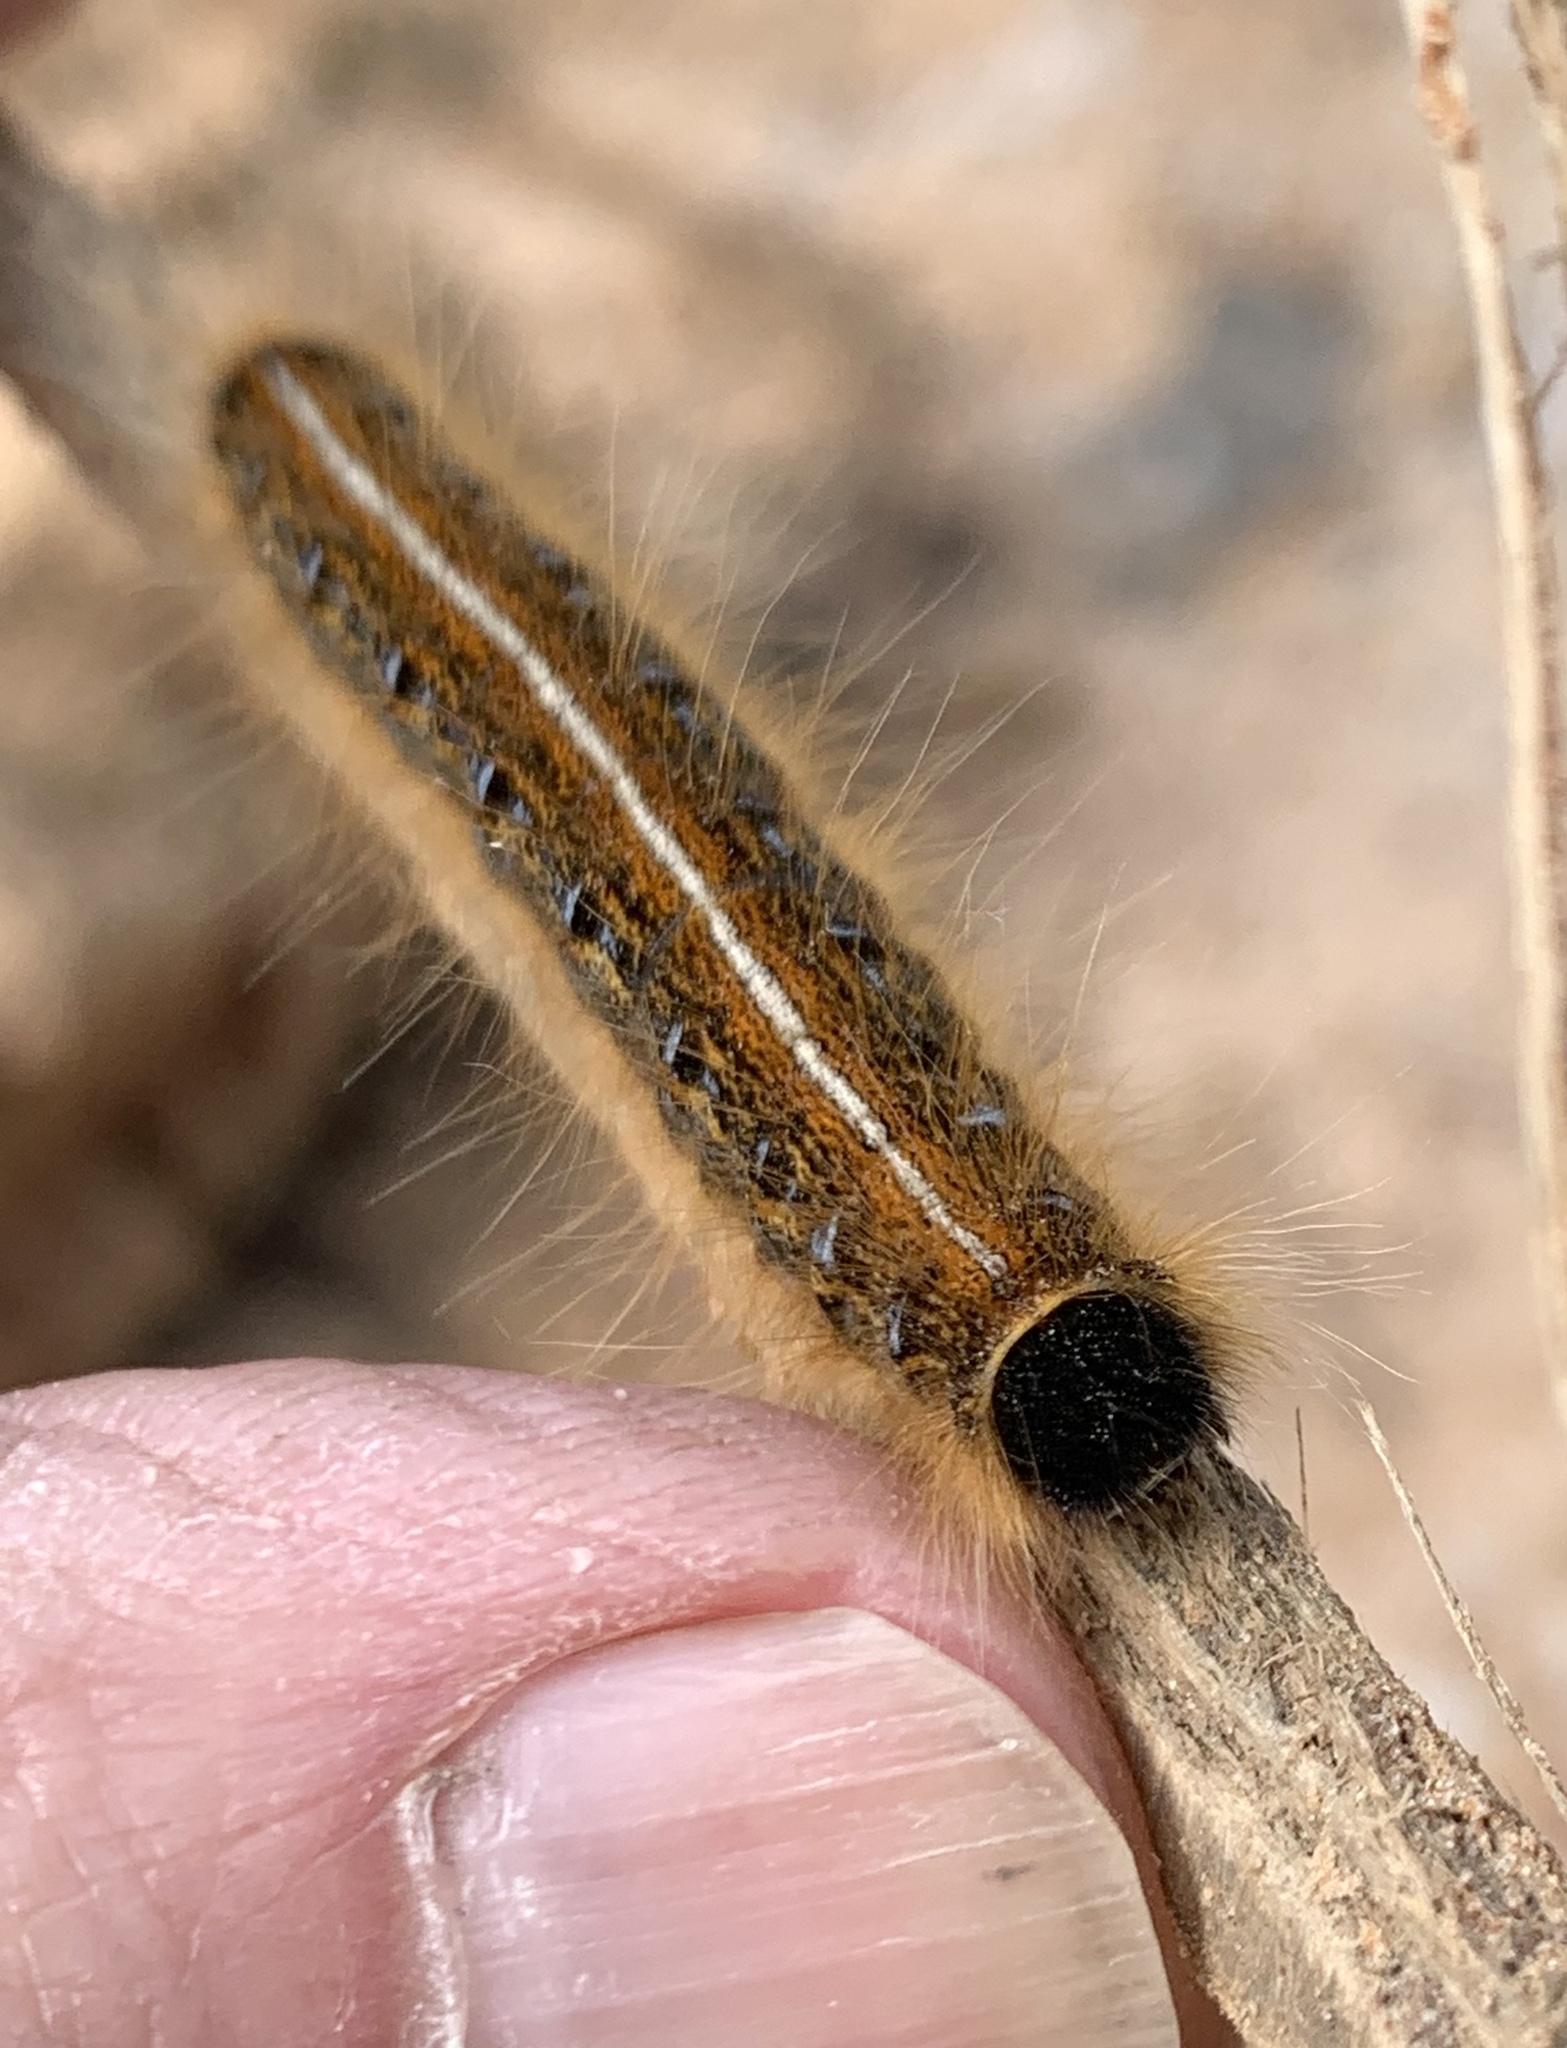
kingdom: Animalia
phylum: Arthropoda
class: Insecta
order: Lepidoptera
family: Lasiocampidae
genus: Malacosoma
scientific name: Malacosoma americana
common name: Eastern tent caterpillar moth
